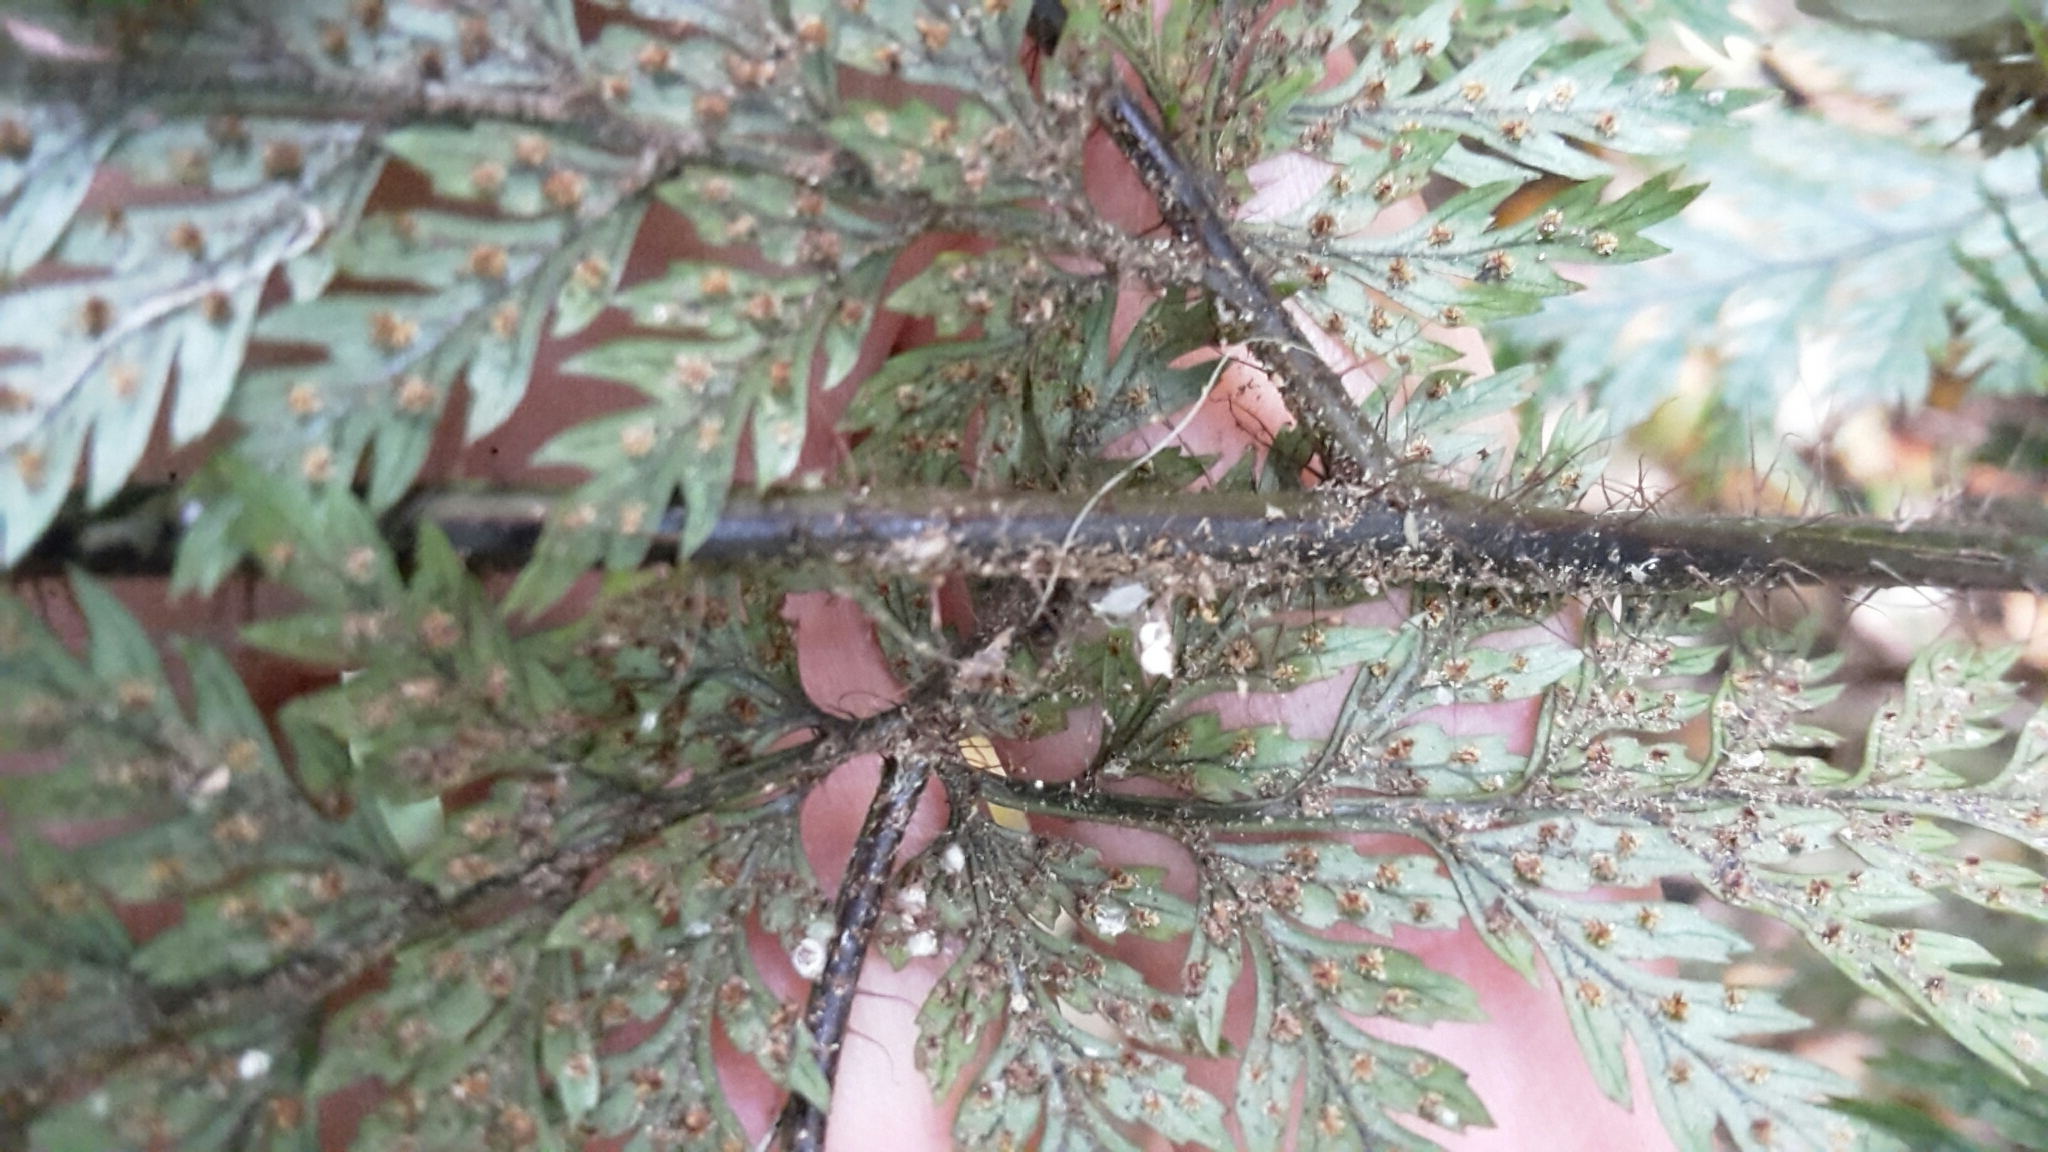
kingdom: Plantae
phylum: Tracheophyta
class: Polypodiopsida
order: Polypodiales
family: Dryopteridaceae
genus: Lastreopsis
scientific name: Lastreopsis hispida
